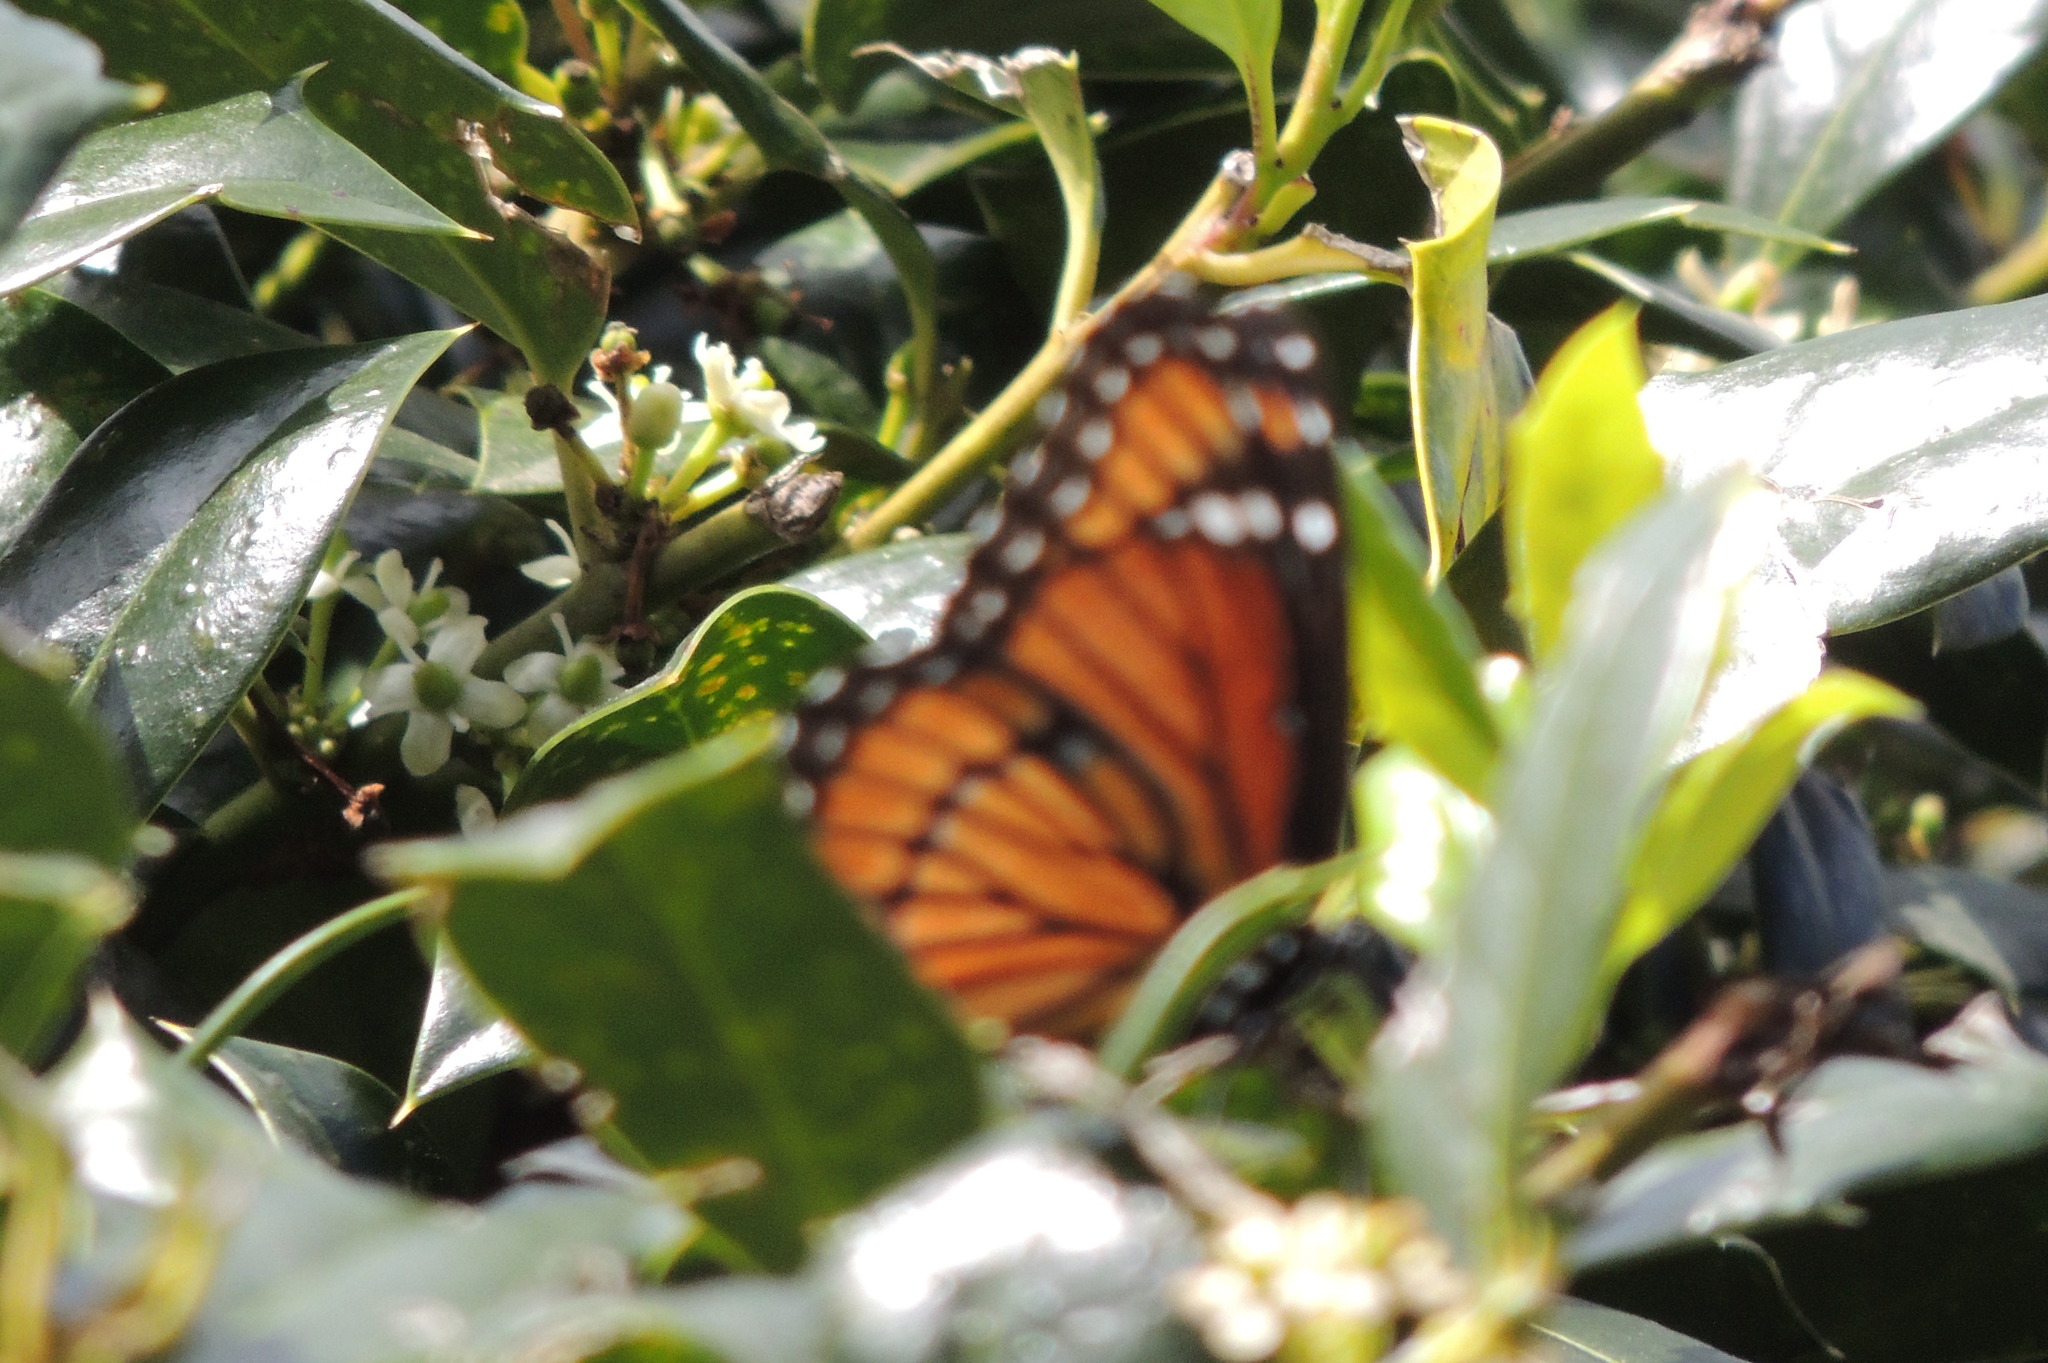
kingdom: Animalia
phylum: Arthropoda
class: Insecta
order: Lepidoptera
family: Nymphalidae
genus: Limenitis
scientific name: Limenitis archippus
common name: Viceroy
